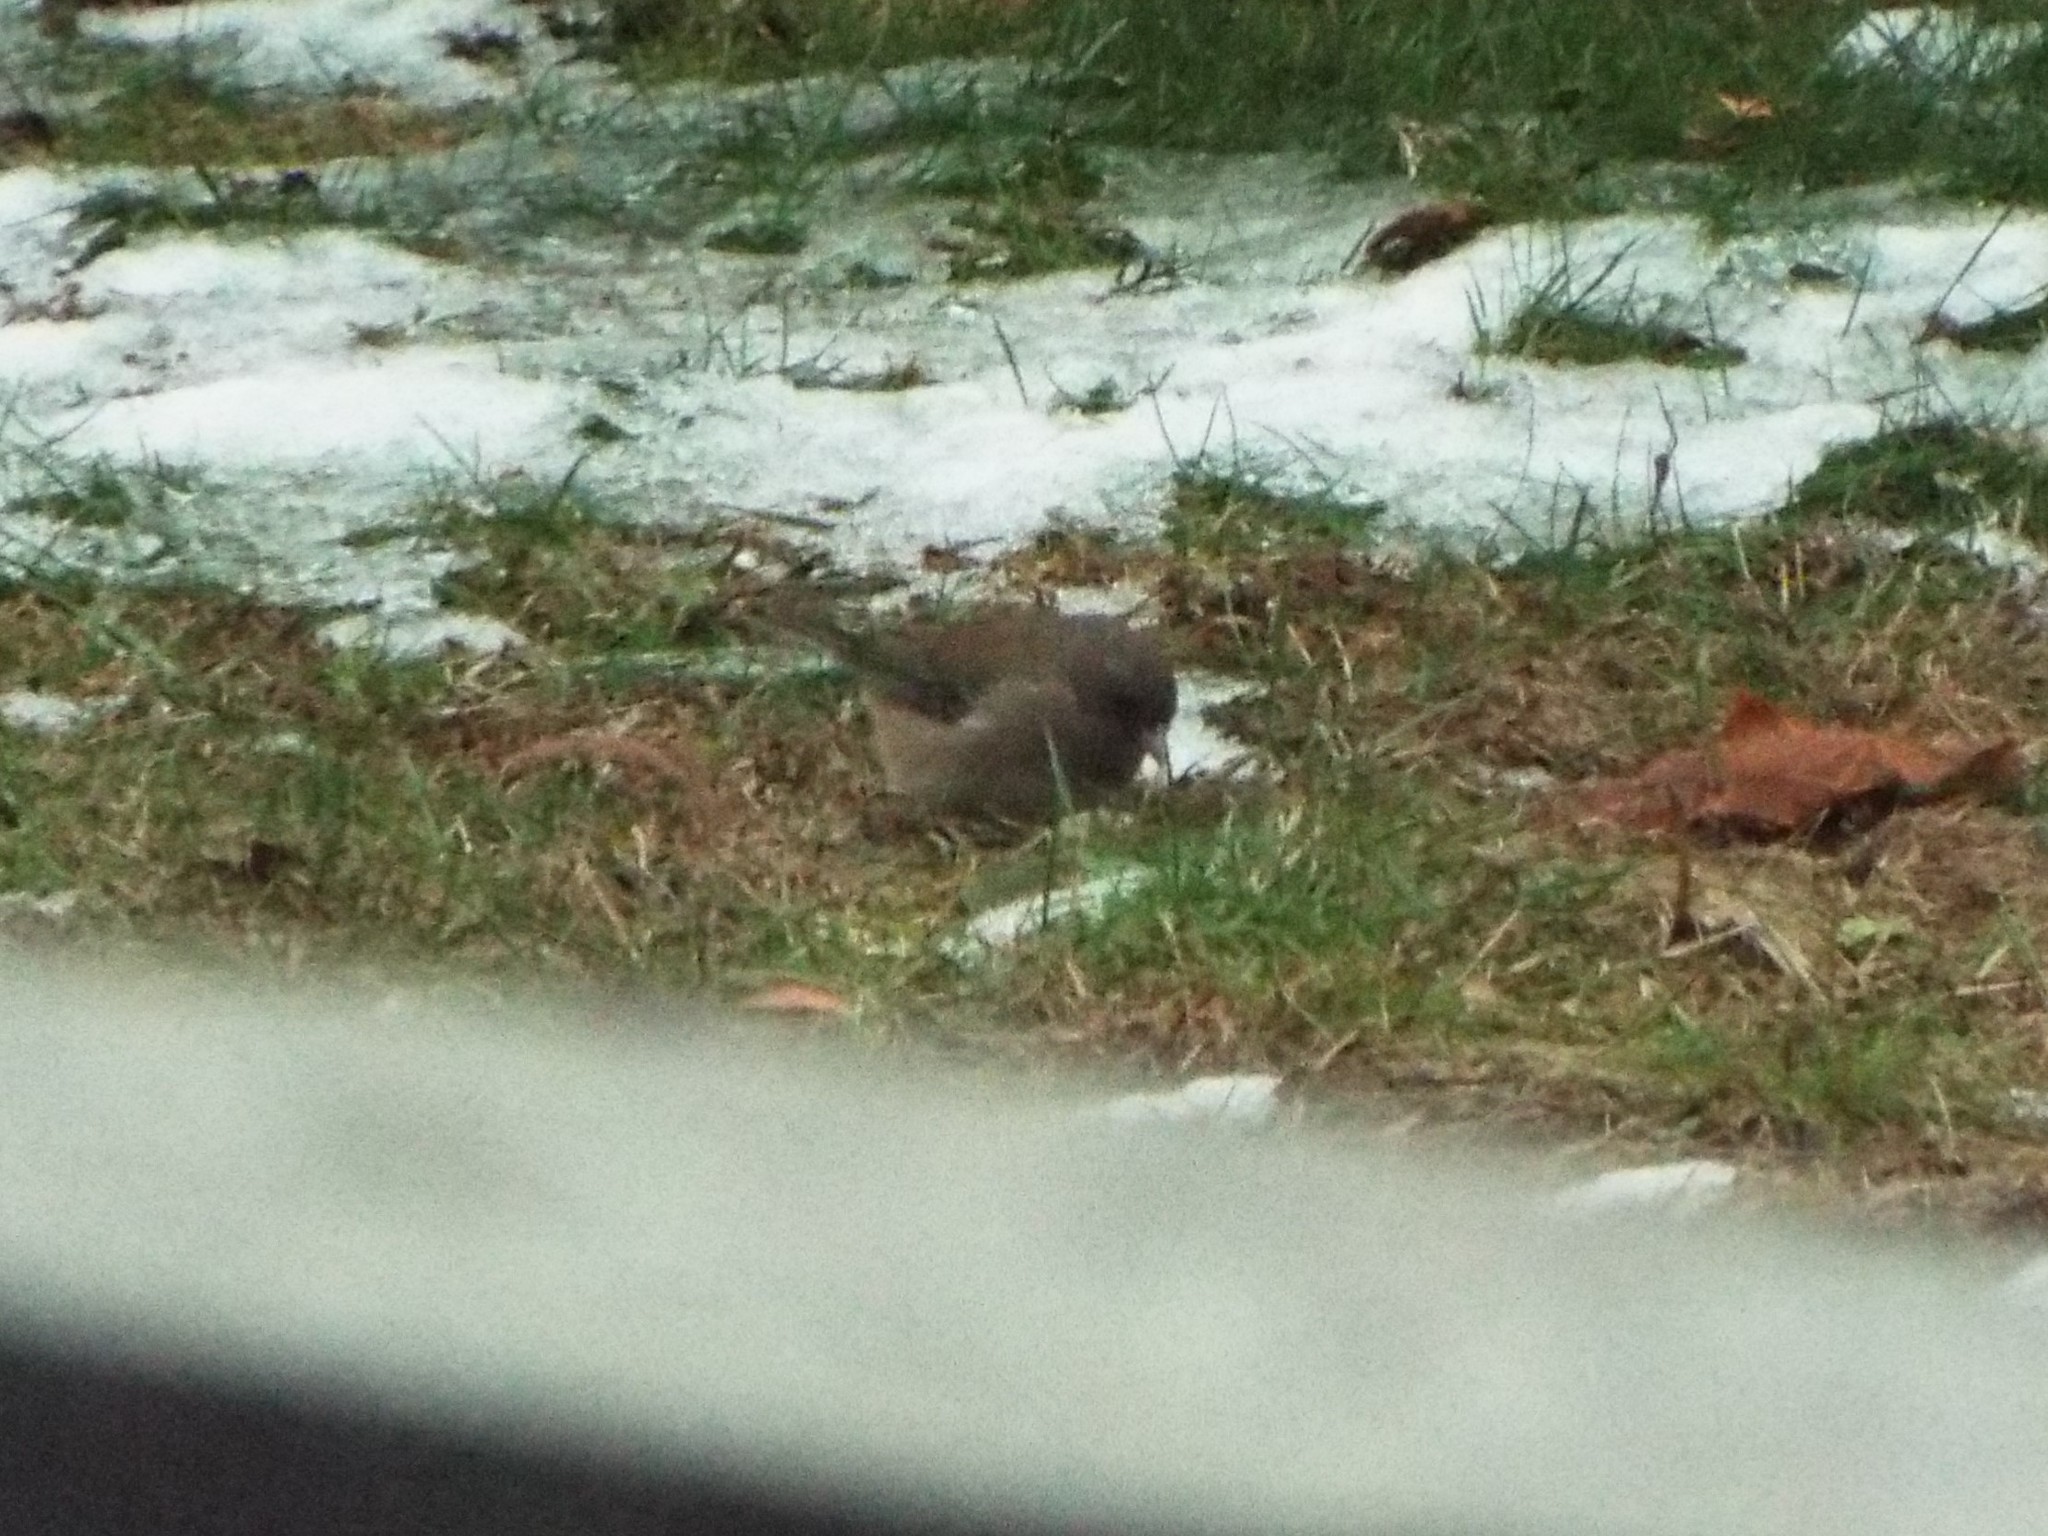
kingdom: Animalia
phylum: Chordata
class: Aves
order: Passeriformes
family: Passerellidae
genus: Junco
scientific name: Junco hyemalis
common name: Dark-eyed junco
